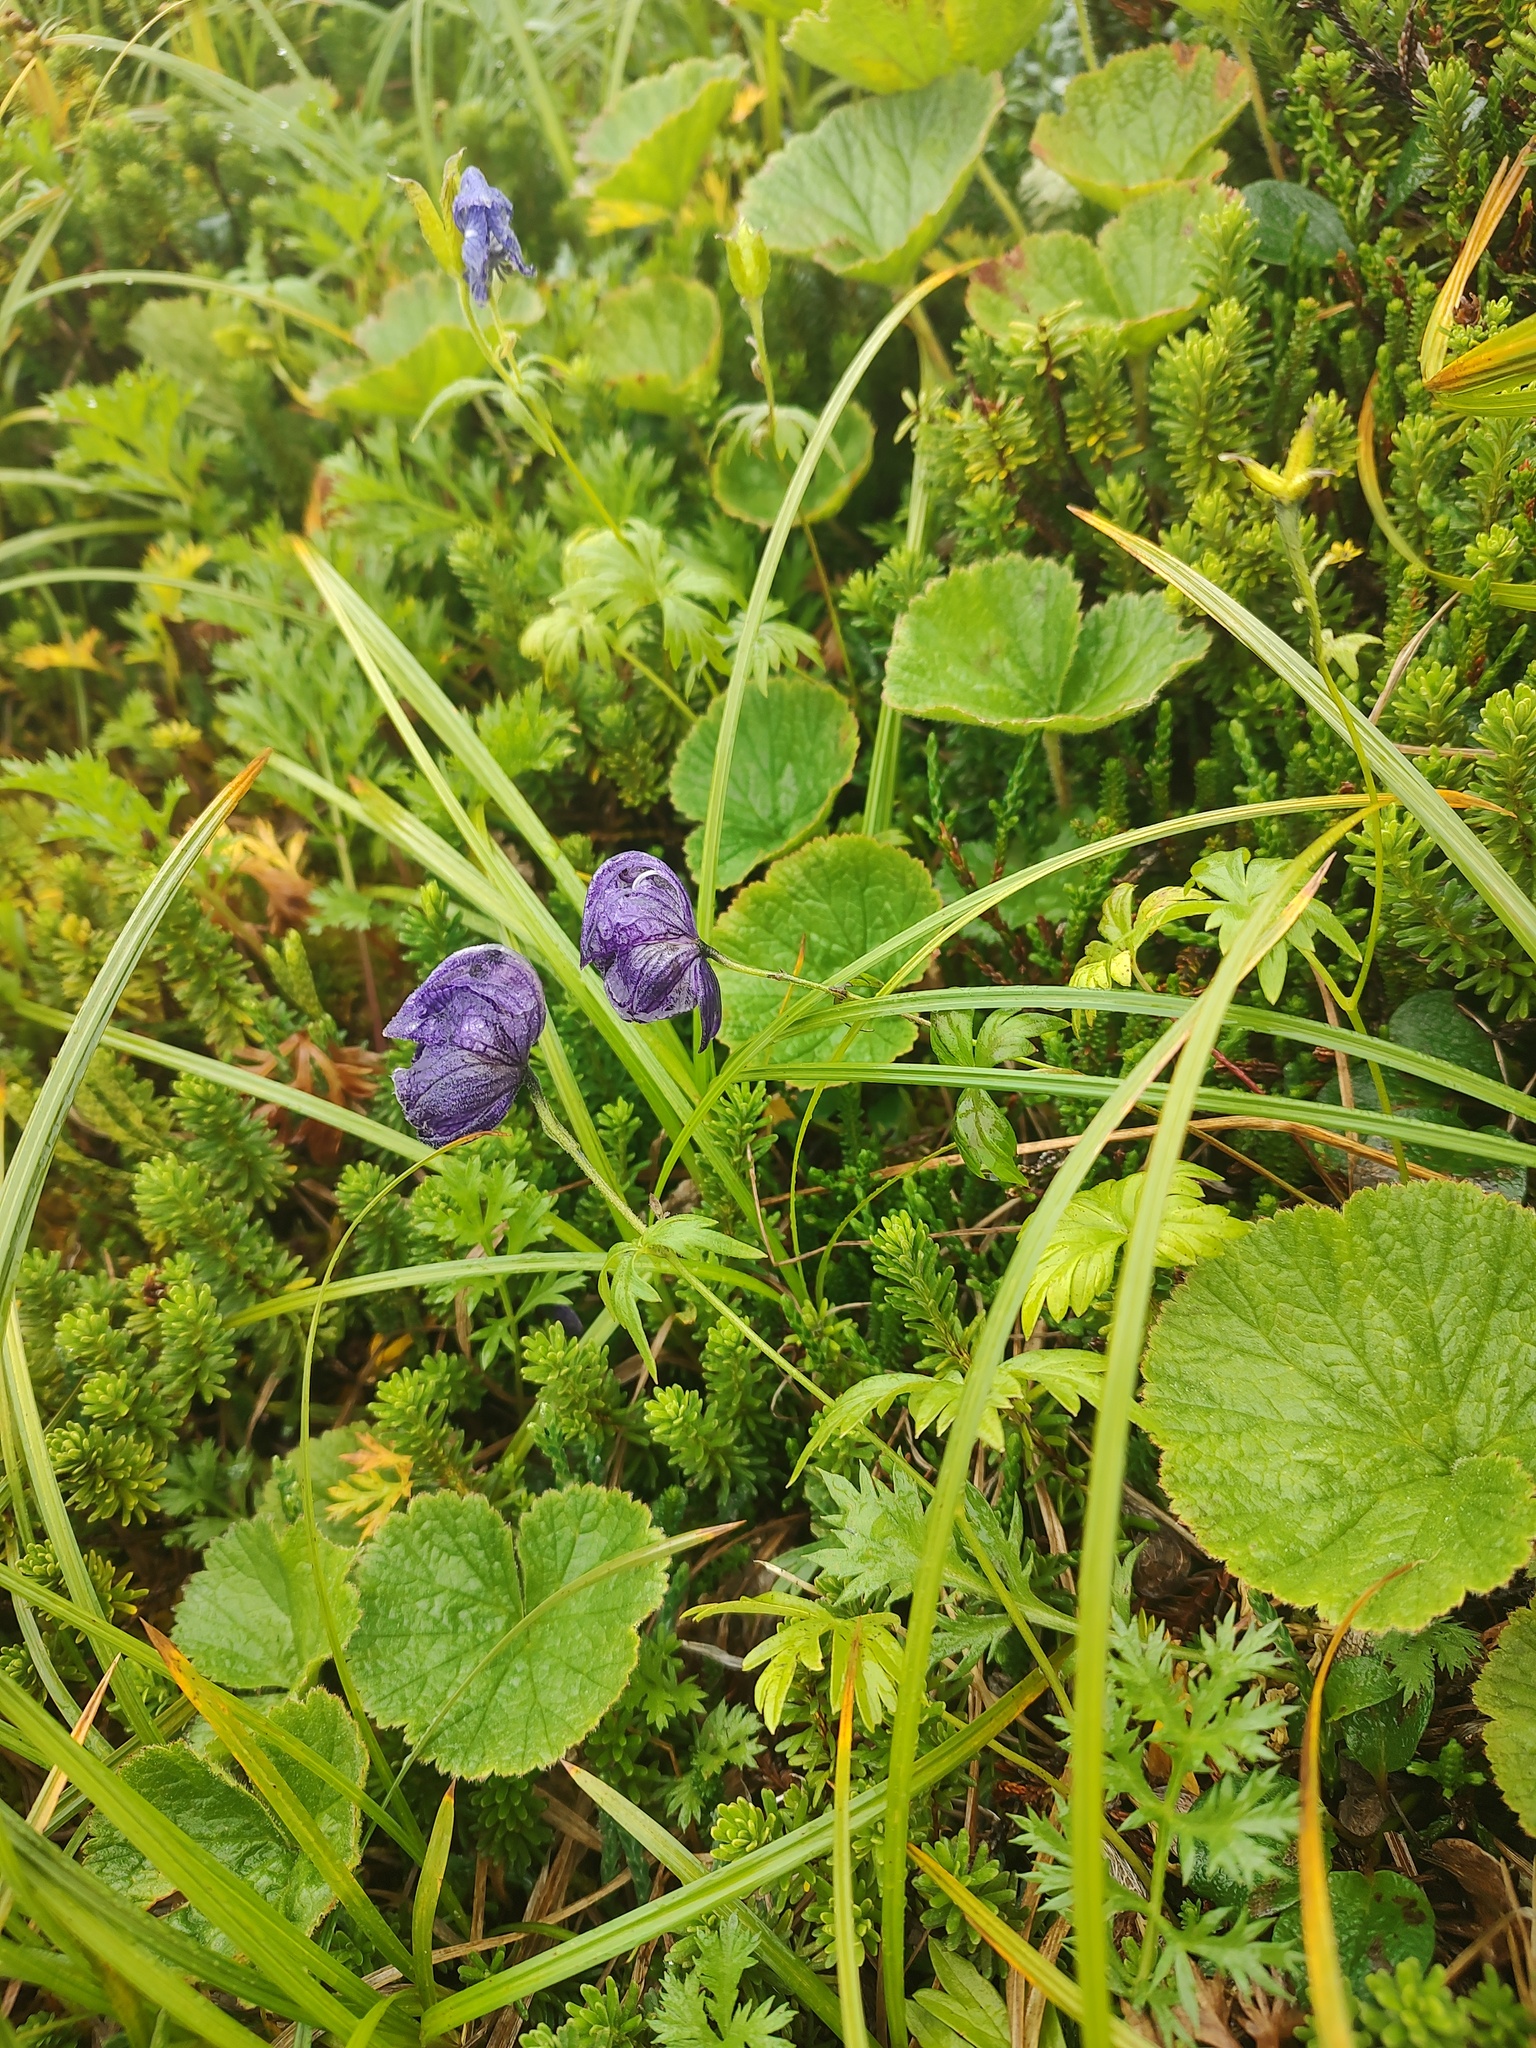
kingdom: Plantae
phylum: Tracheophyta
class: Magnoliopsida
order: Ranunculales
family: Ranunculaceae
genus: Aconitum
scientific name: Aconitum delphiniifolium
